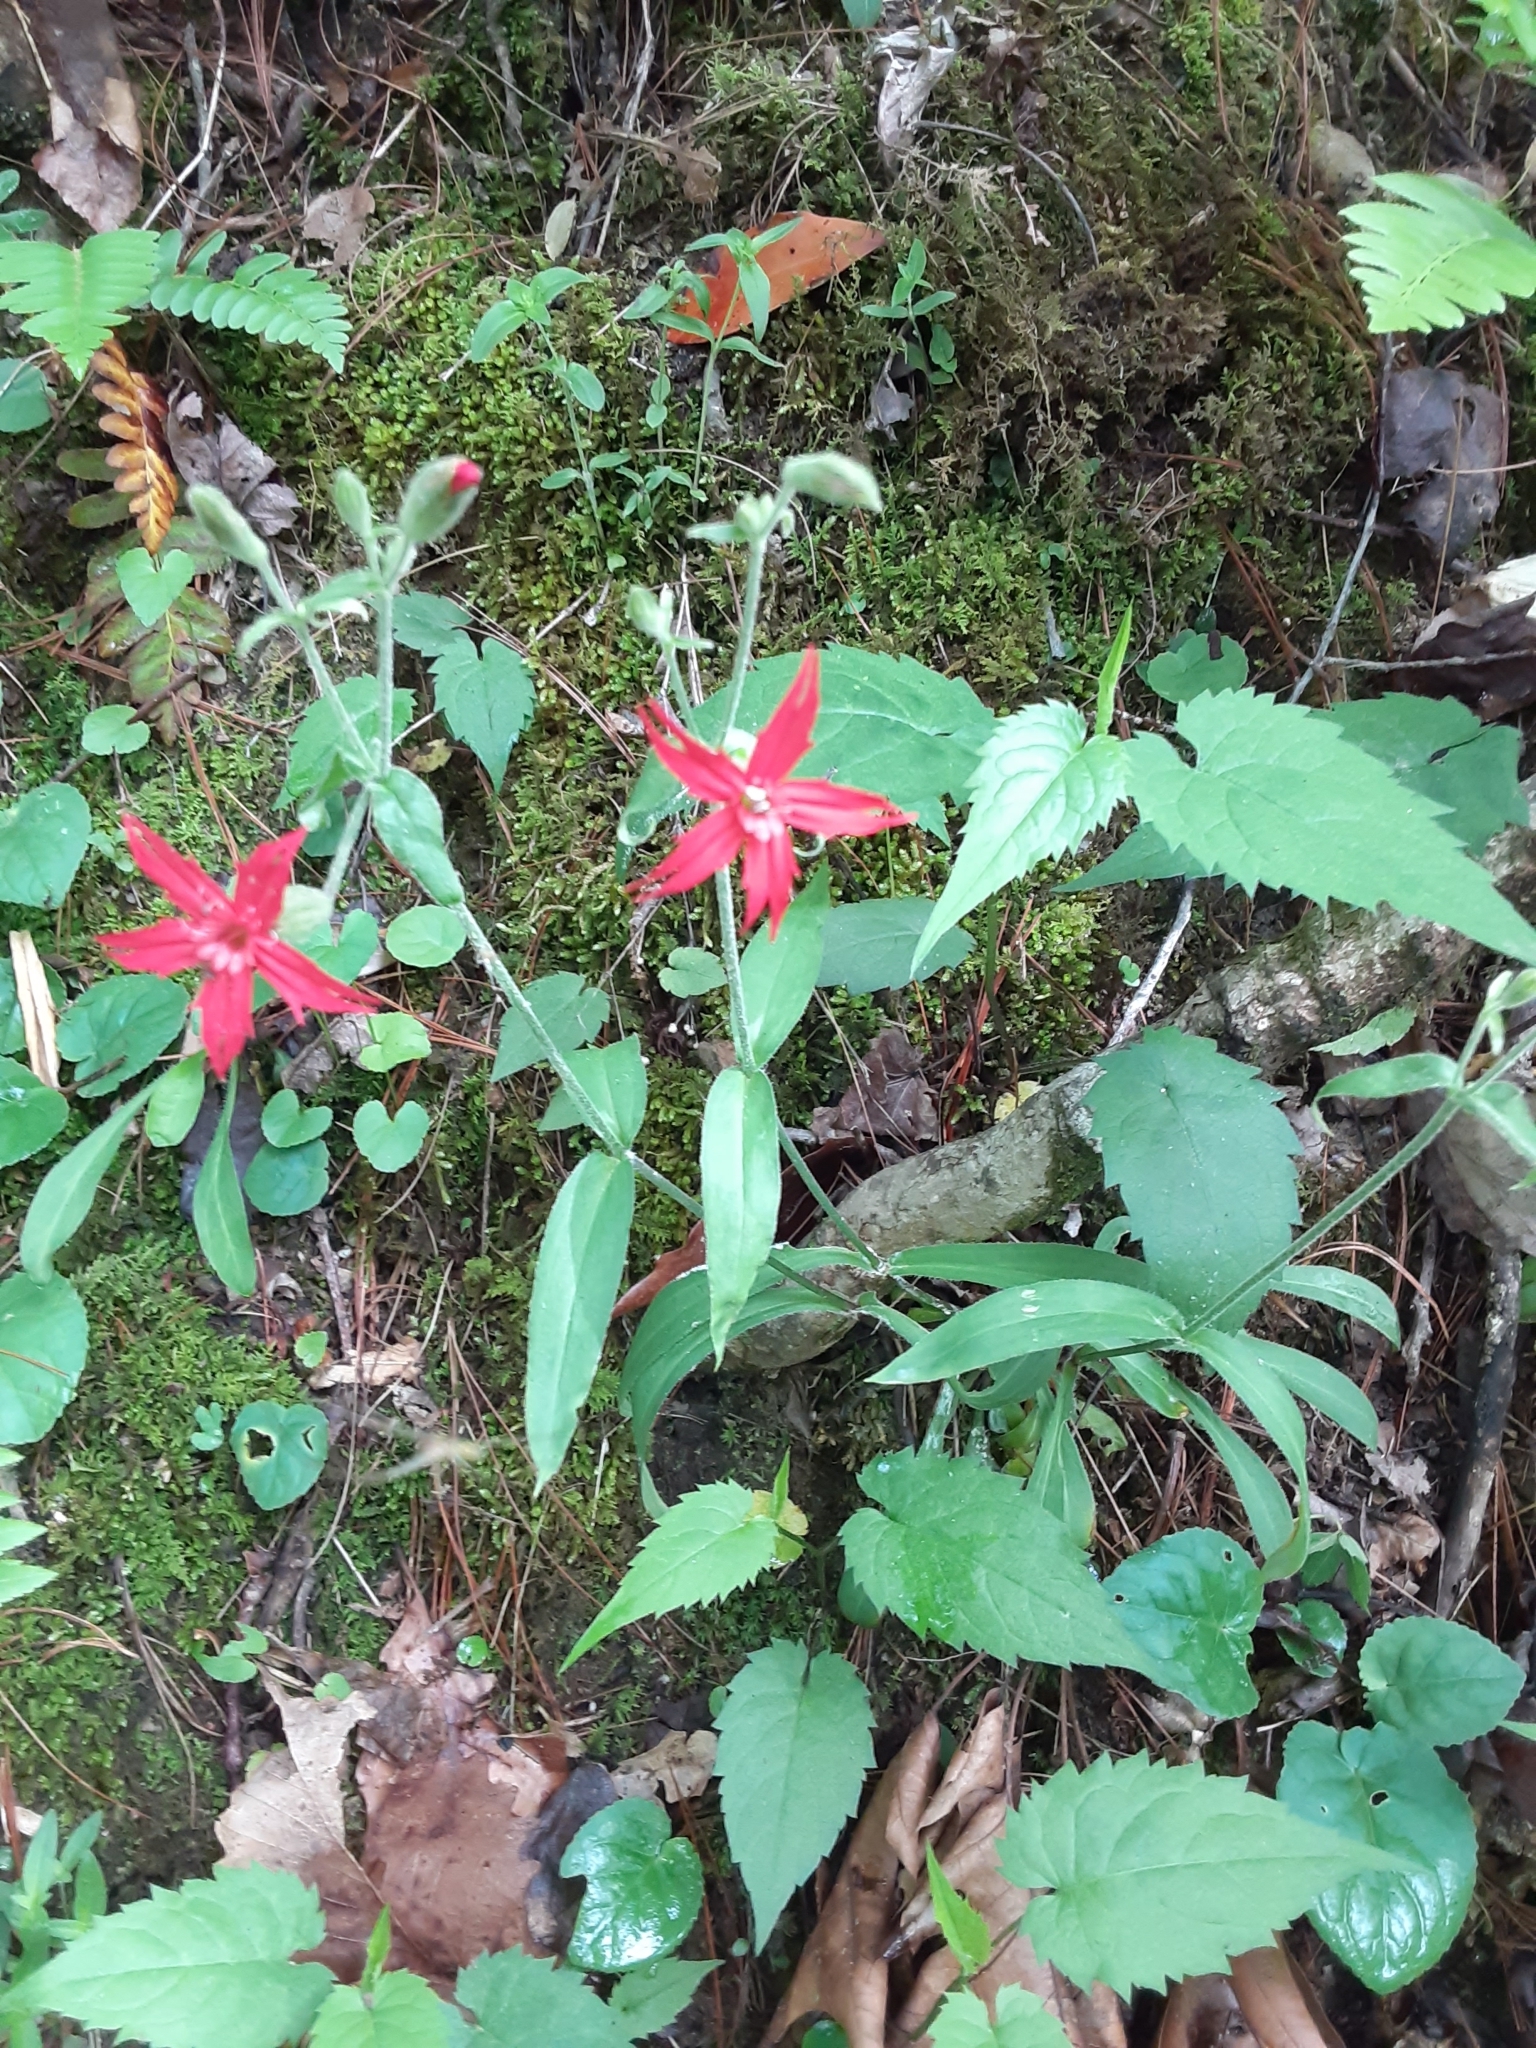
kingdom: Plantae
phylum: Tracheophyta
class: Magnoliopsida
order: Caryophyllales
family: Caryophyllaceae
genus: Silene
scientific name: Silene virginica
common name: Fire-pink
